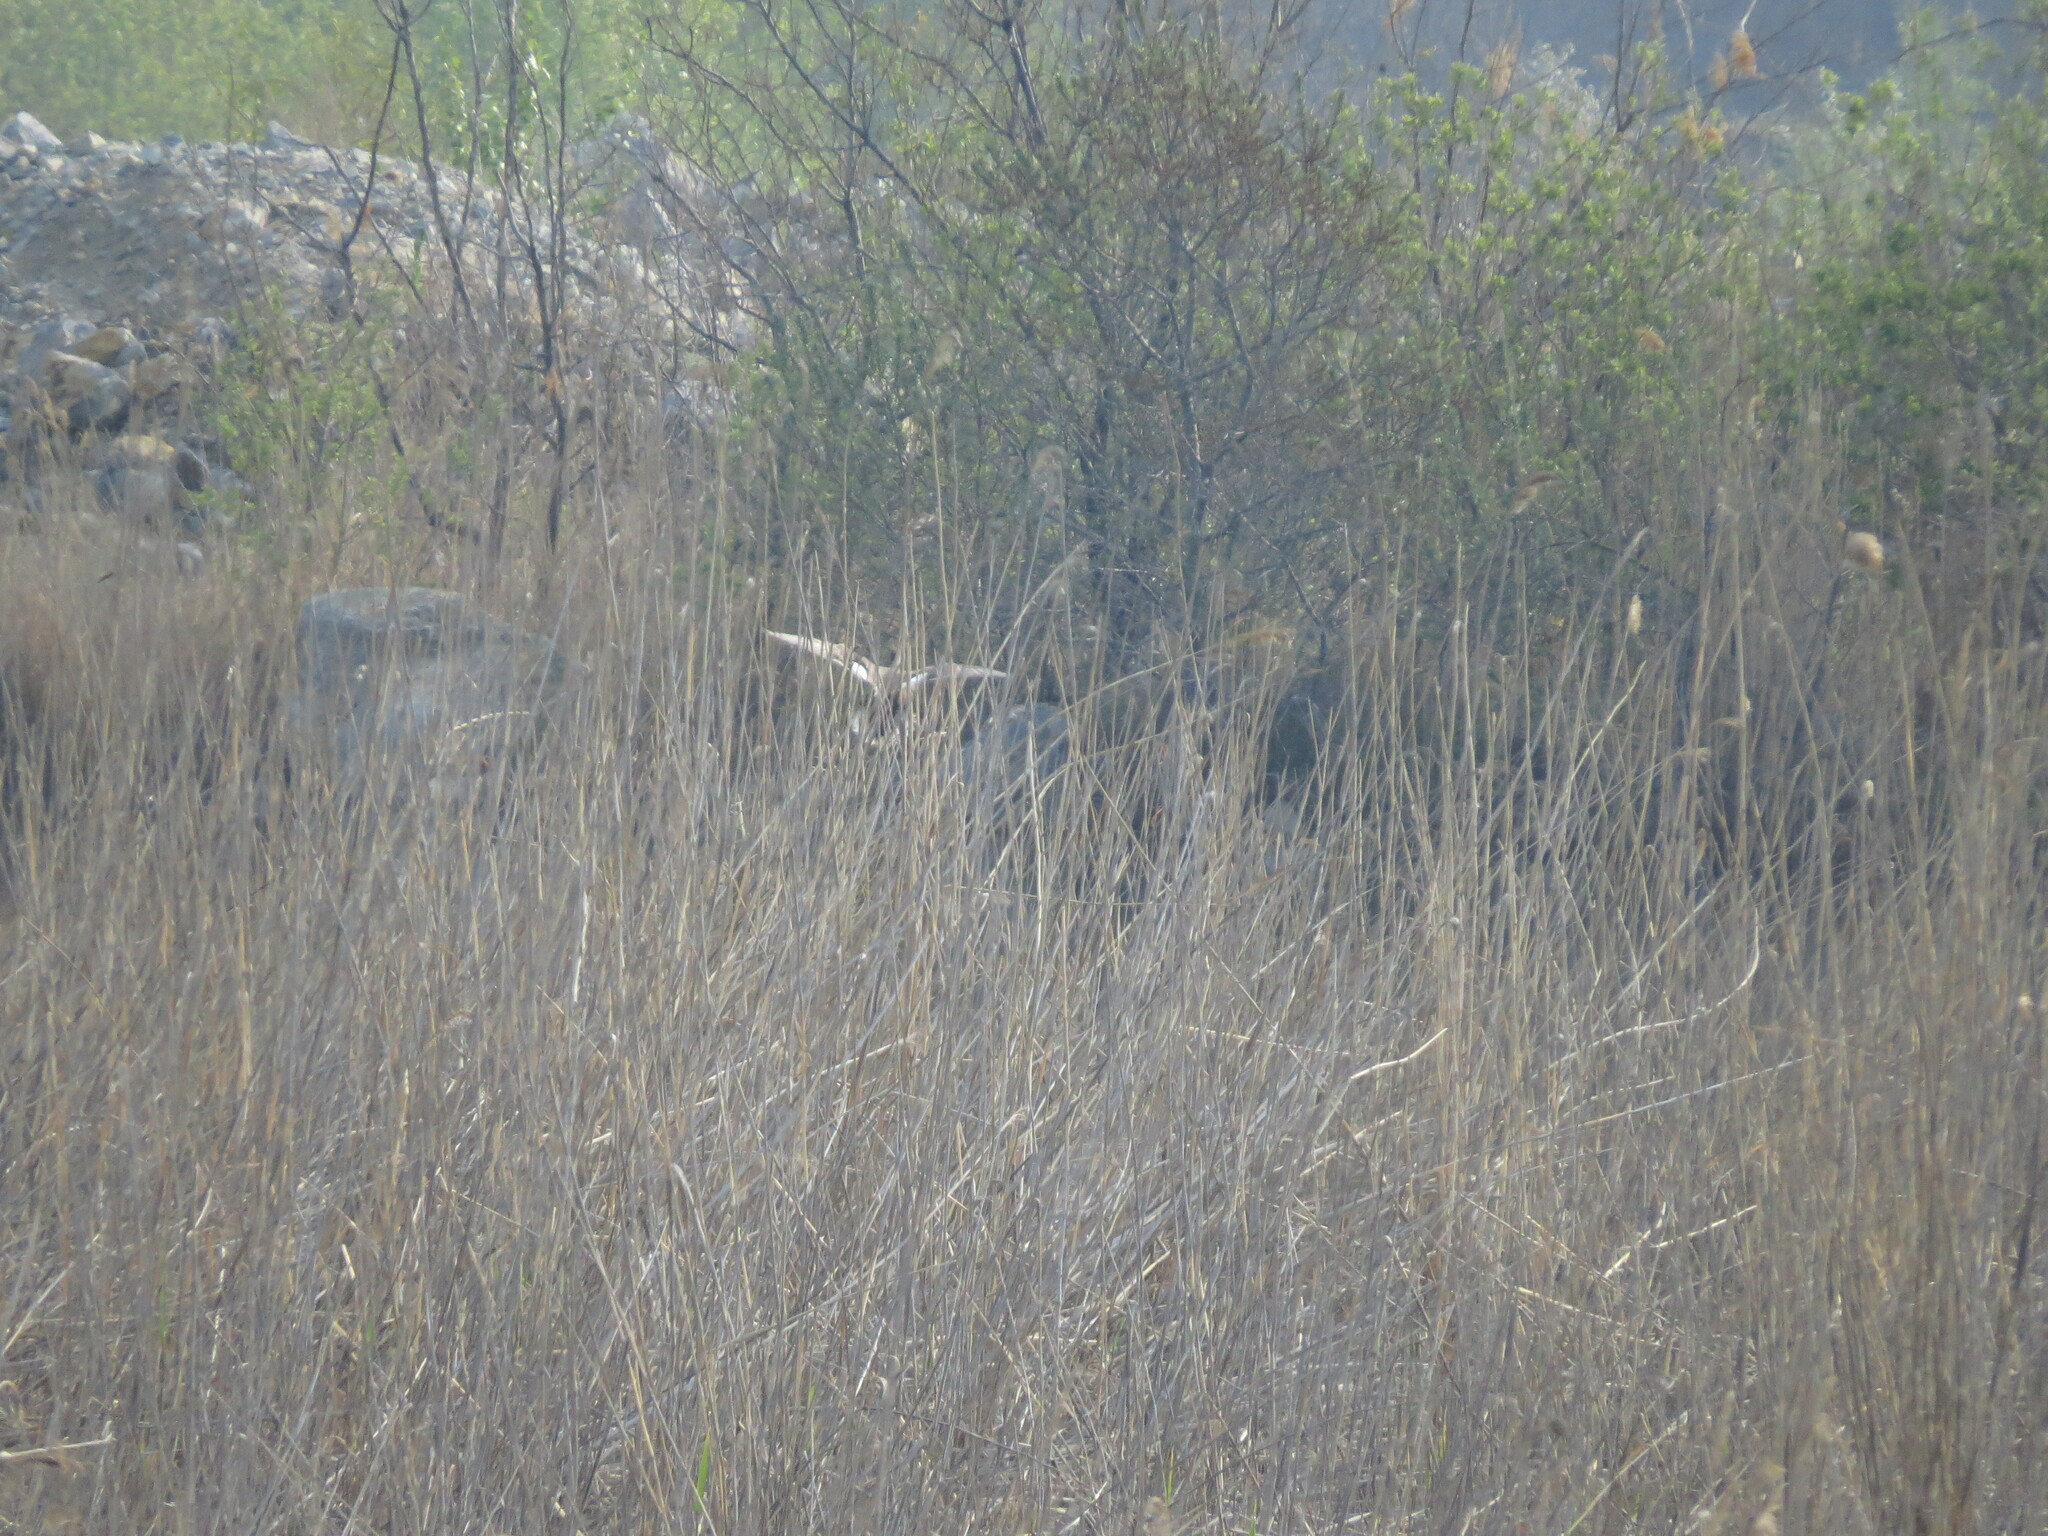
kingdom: Animalia
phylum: Chordata
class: Aves
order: Anseriformes
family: Anatidae
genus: Anas
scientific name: Anas
